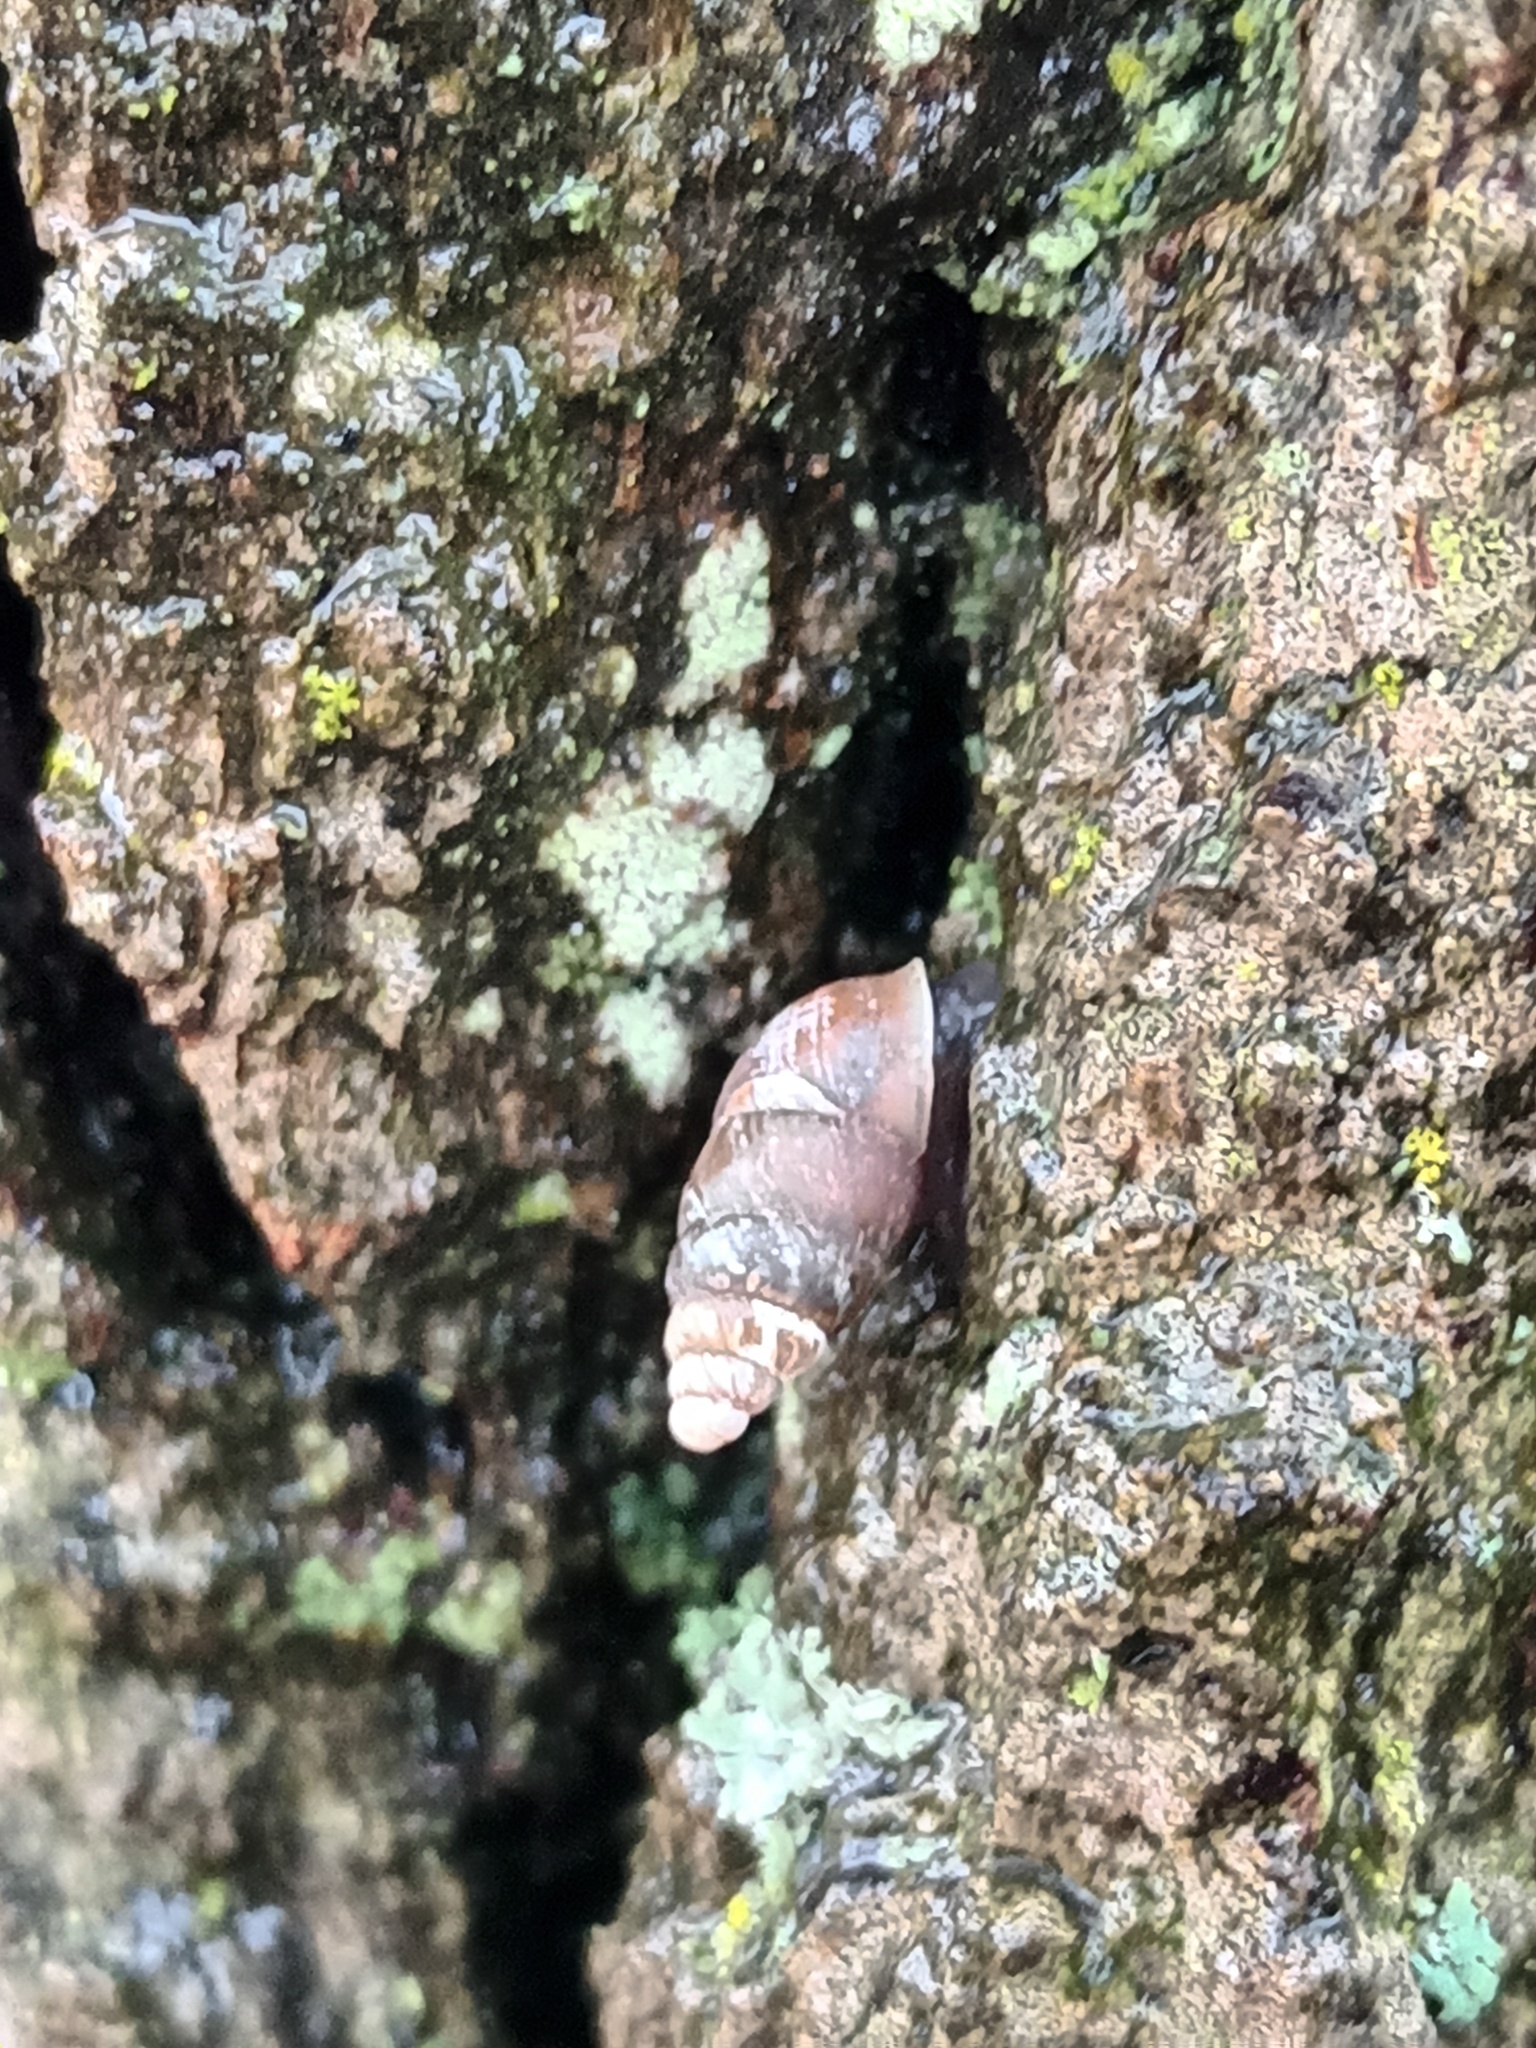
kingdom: Animalia
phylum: Mollusca
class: Gastropoda
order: Stylommatophora
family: Enidae
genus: Merdigera
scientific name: Merdigera obscura
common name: Lesser bulin
